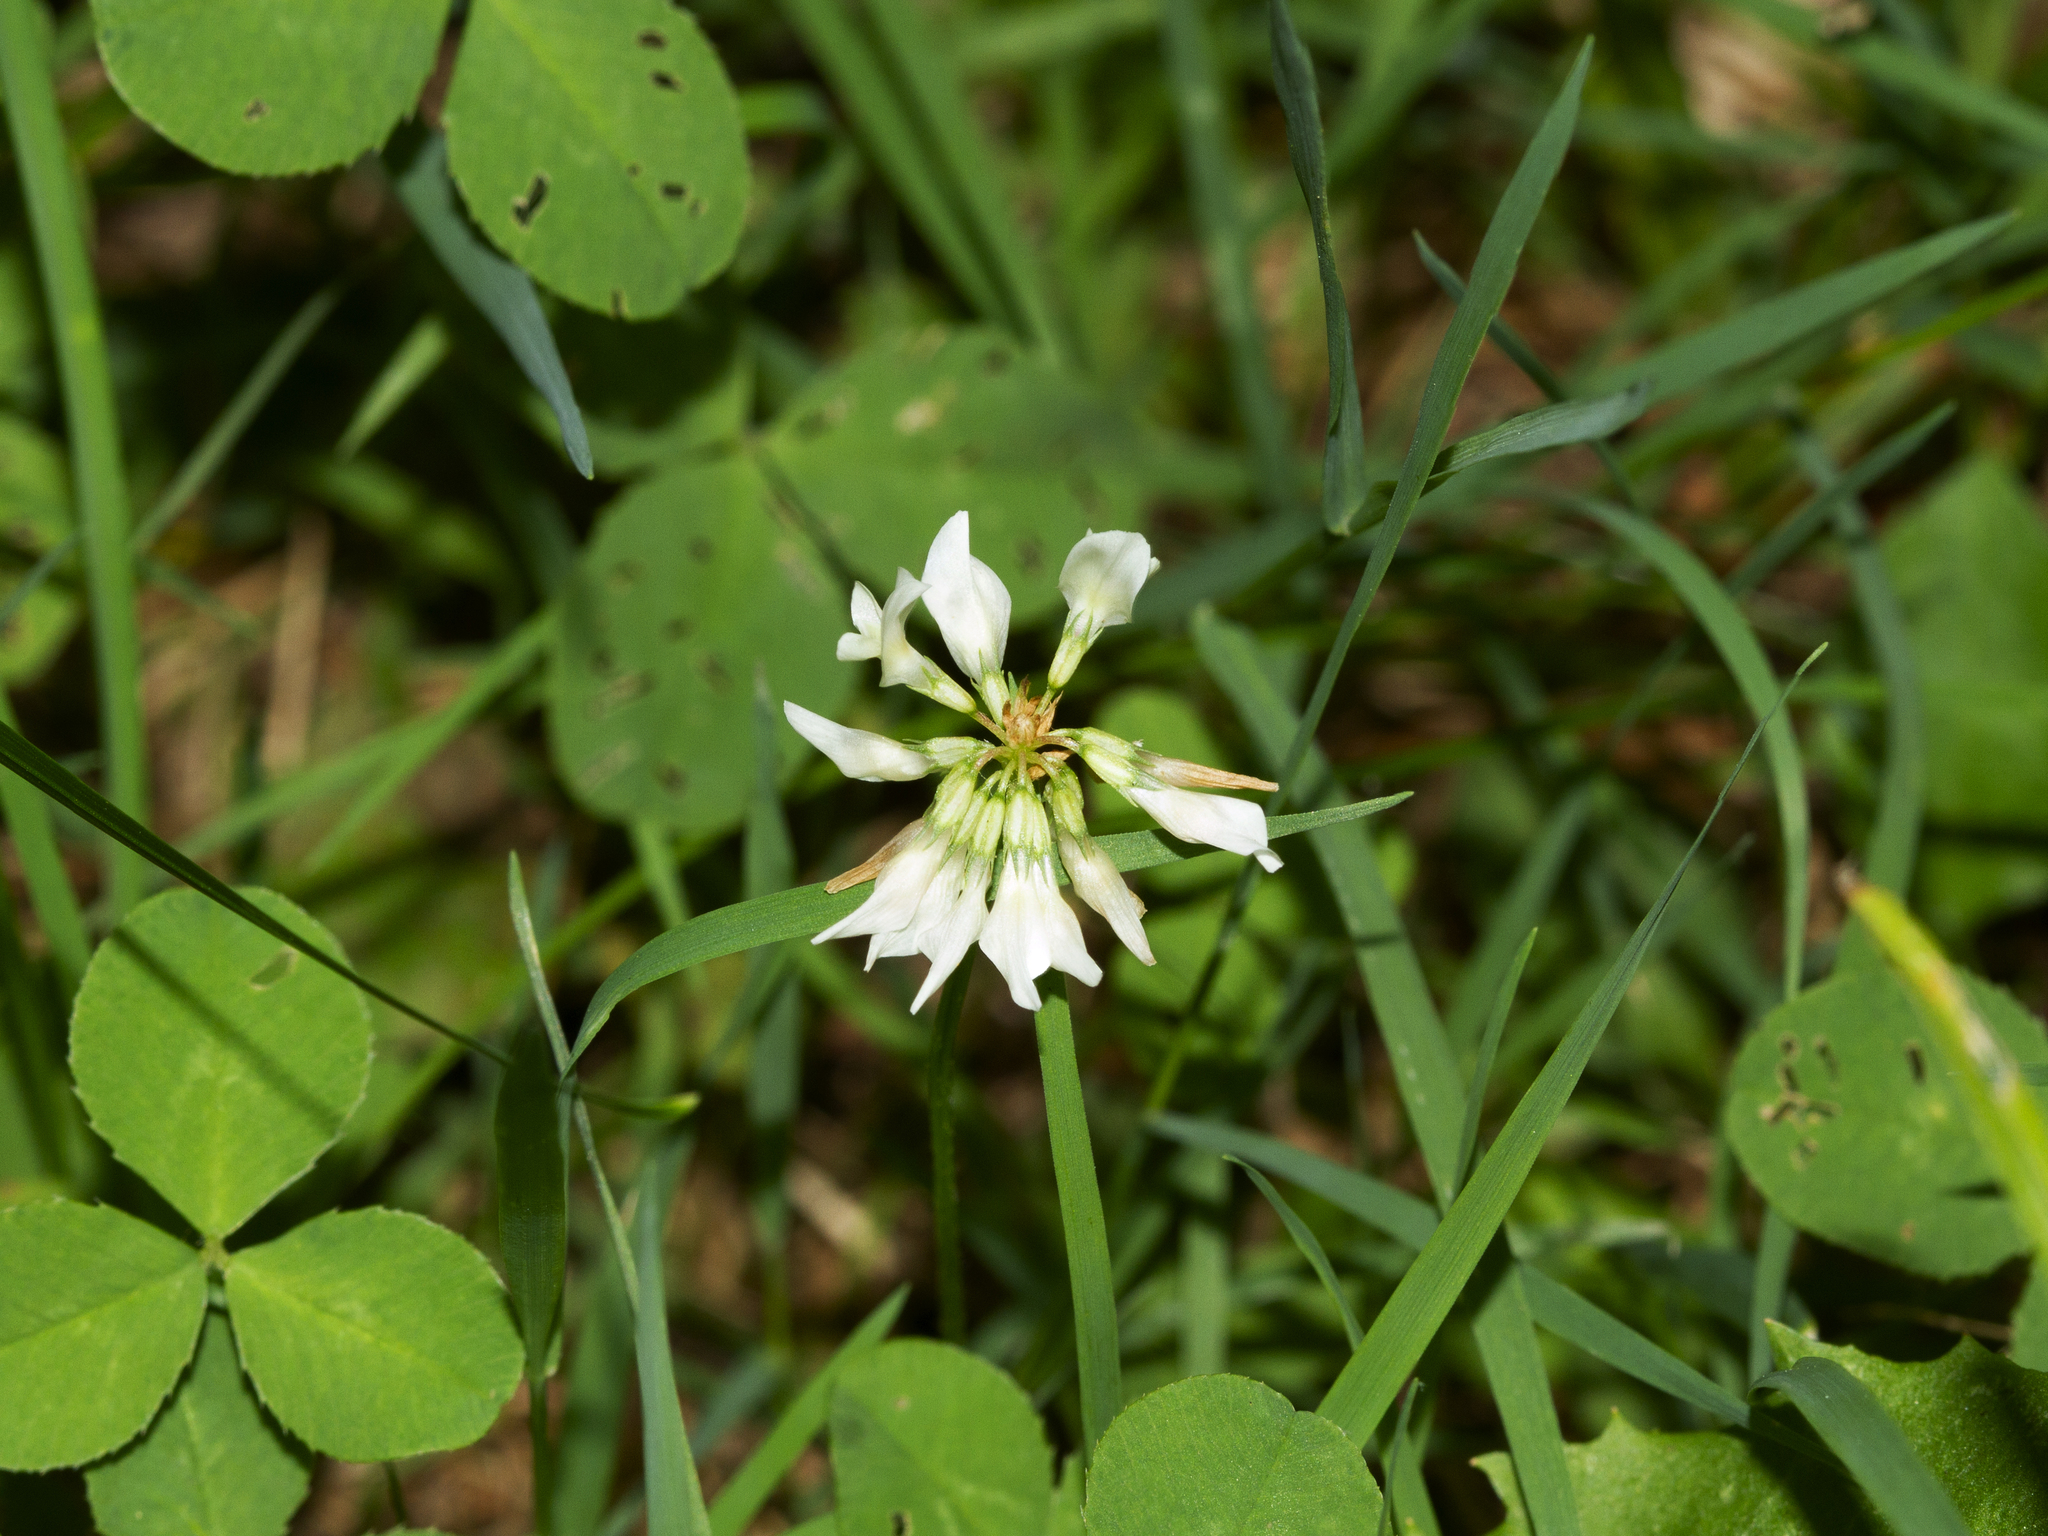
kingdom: Plantae
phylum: Tracheophyta
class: Magnoliopsida
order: Fabales
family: Fabaceae
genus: Trifolium
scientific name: Trifolium repens
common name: White clover
